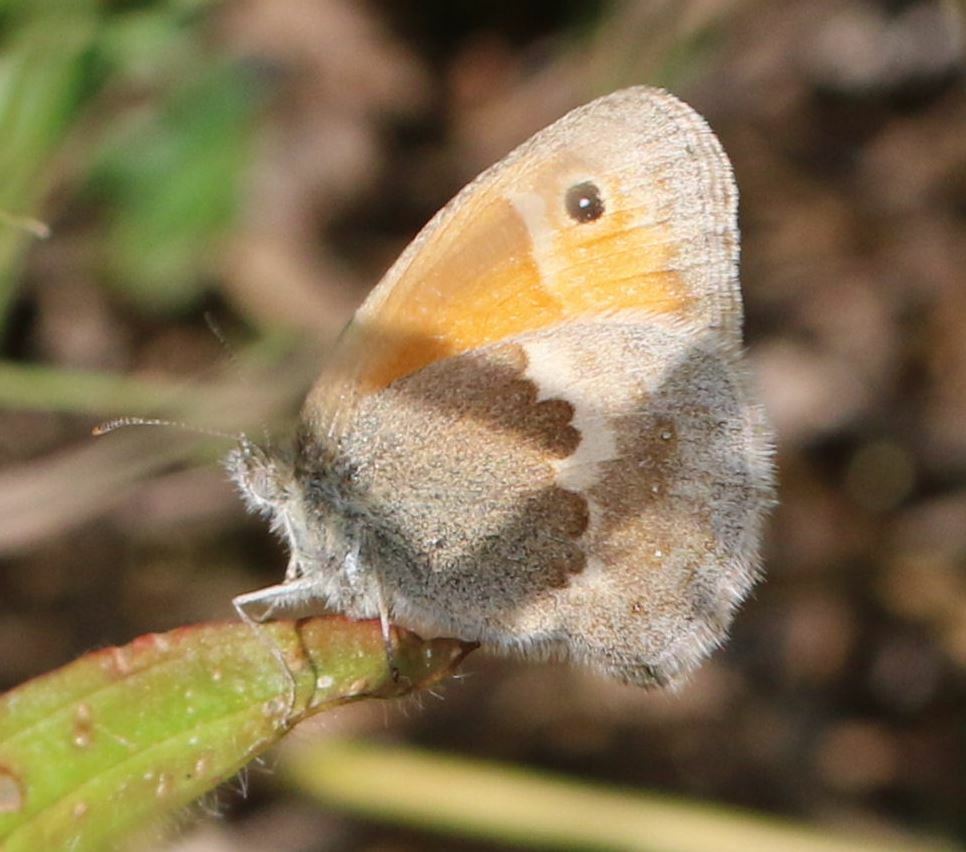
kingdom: Animalia
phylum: Arthropoda
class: Insecta
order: Lepidoptera
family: Nymphalidae
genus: Coenonympha
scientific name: Coenonympha pamphilus
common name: Small heath
